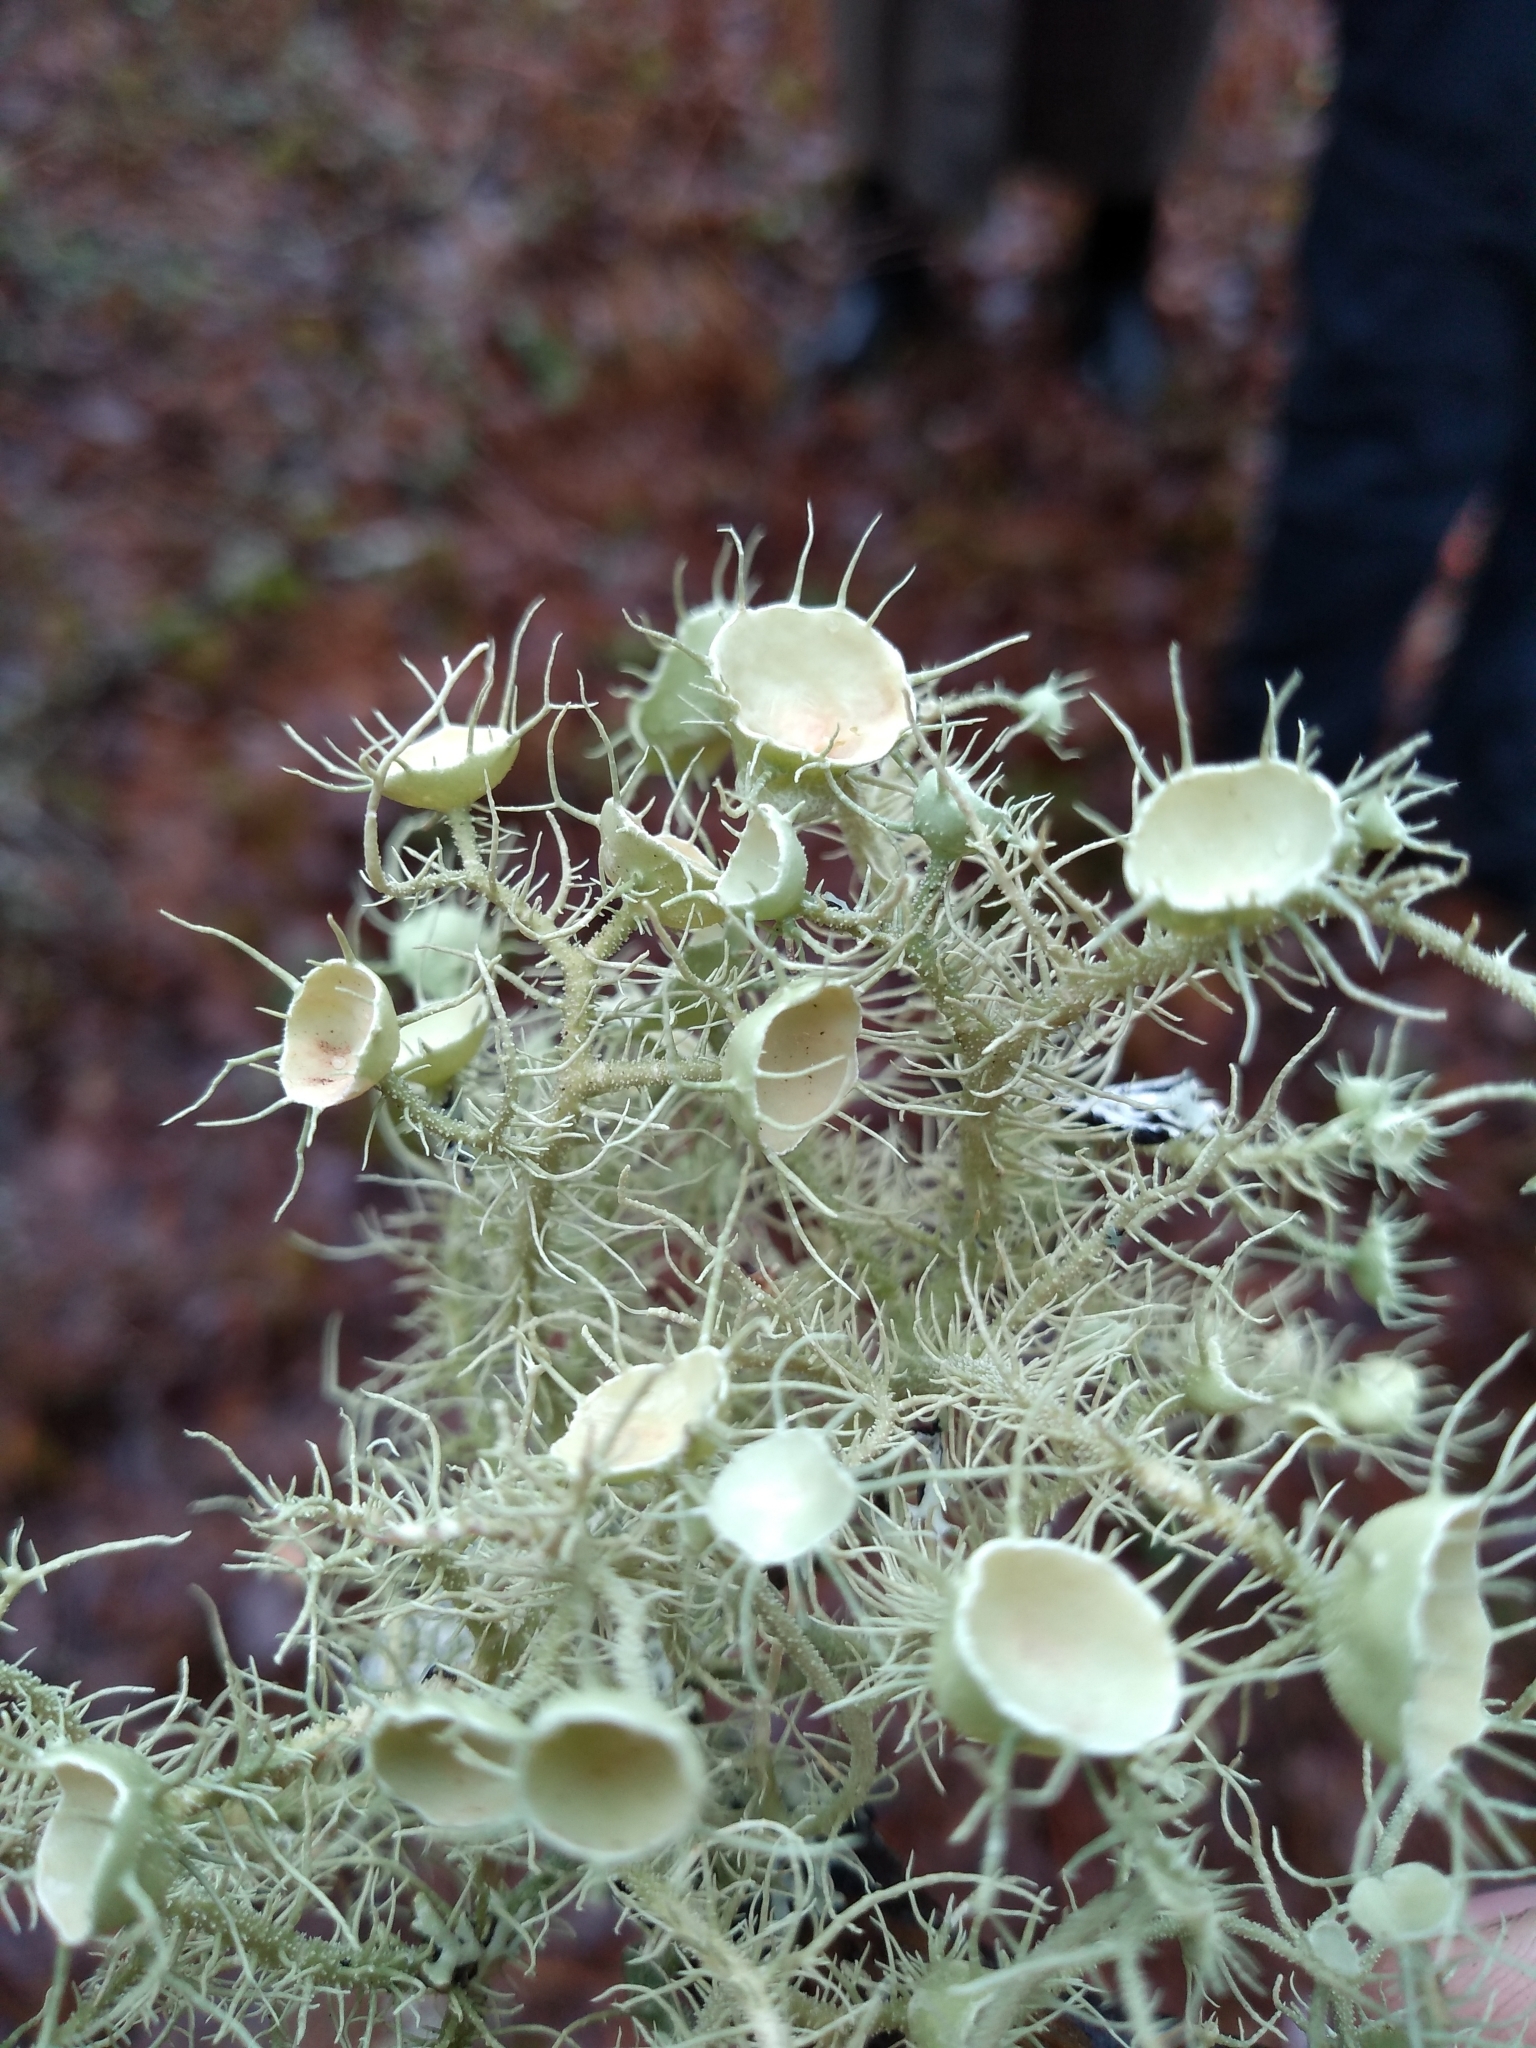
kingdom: Fungi
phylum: Ascomycota
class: Lecanoromycetes
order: Lecanorales
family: Parmeliaceae
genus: Usnea
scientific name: Usnea strigosa
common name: Bushy beard lichen
